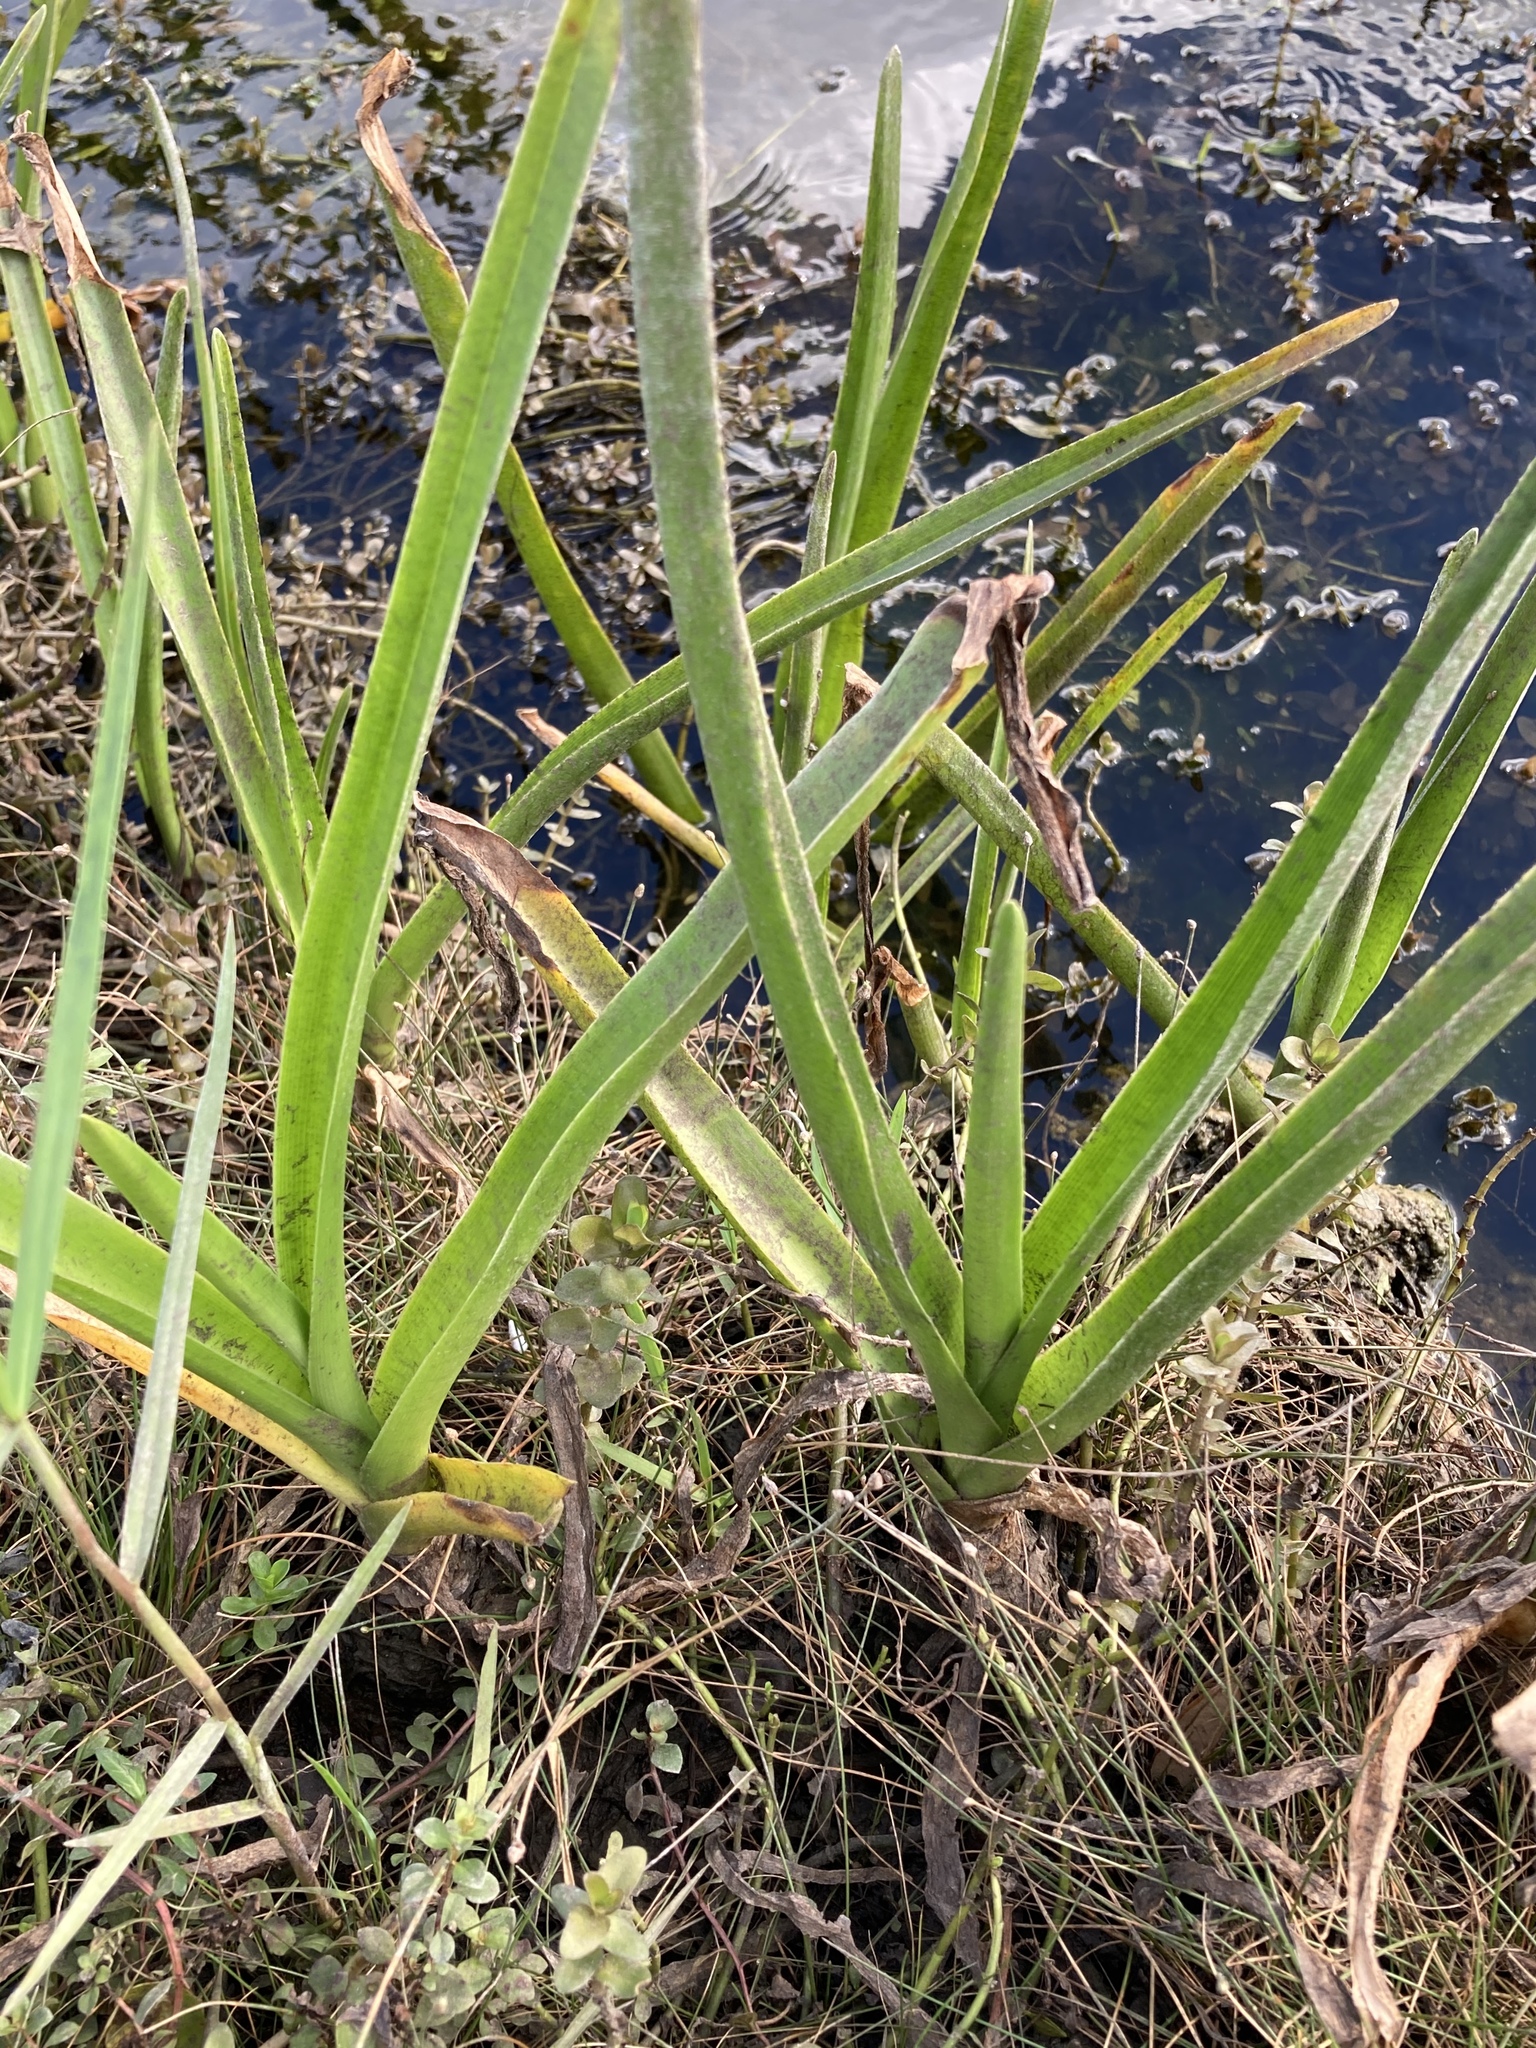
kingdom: Plantae
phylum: Tracheophyta
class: Liliopsida
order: Asparagales
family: Amaryllidaceae
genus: Crinum
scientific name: Crinum americanum
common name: Florida swamp-lily
